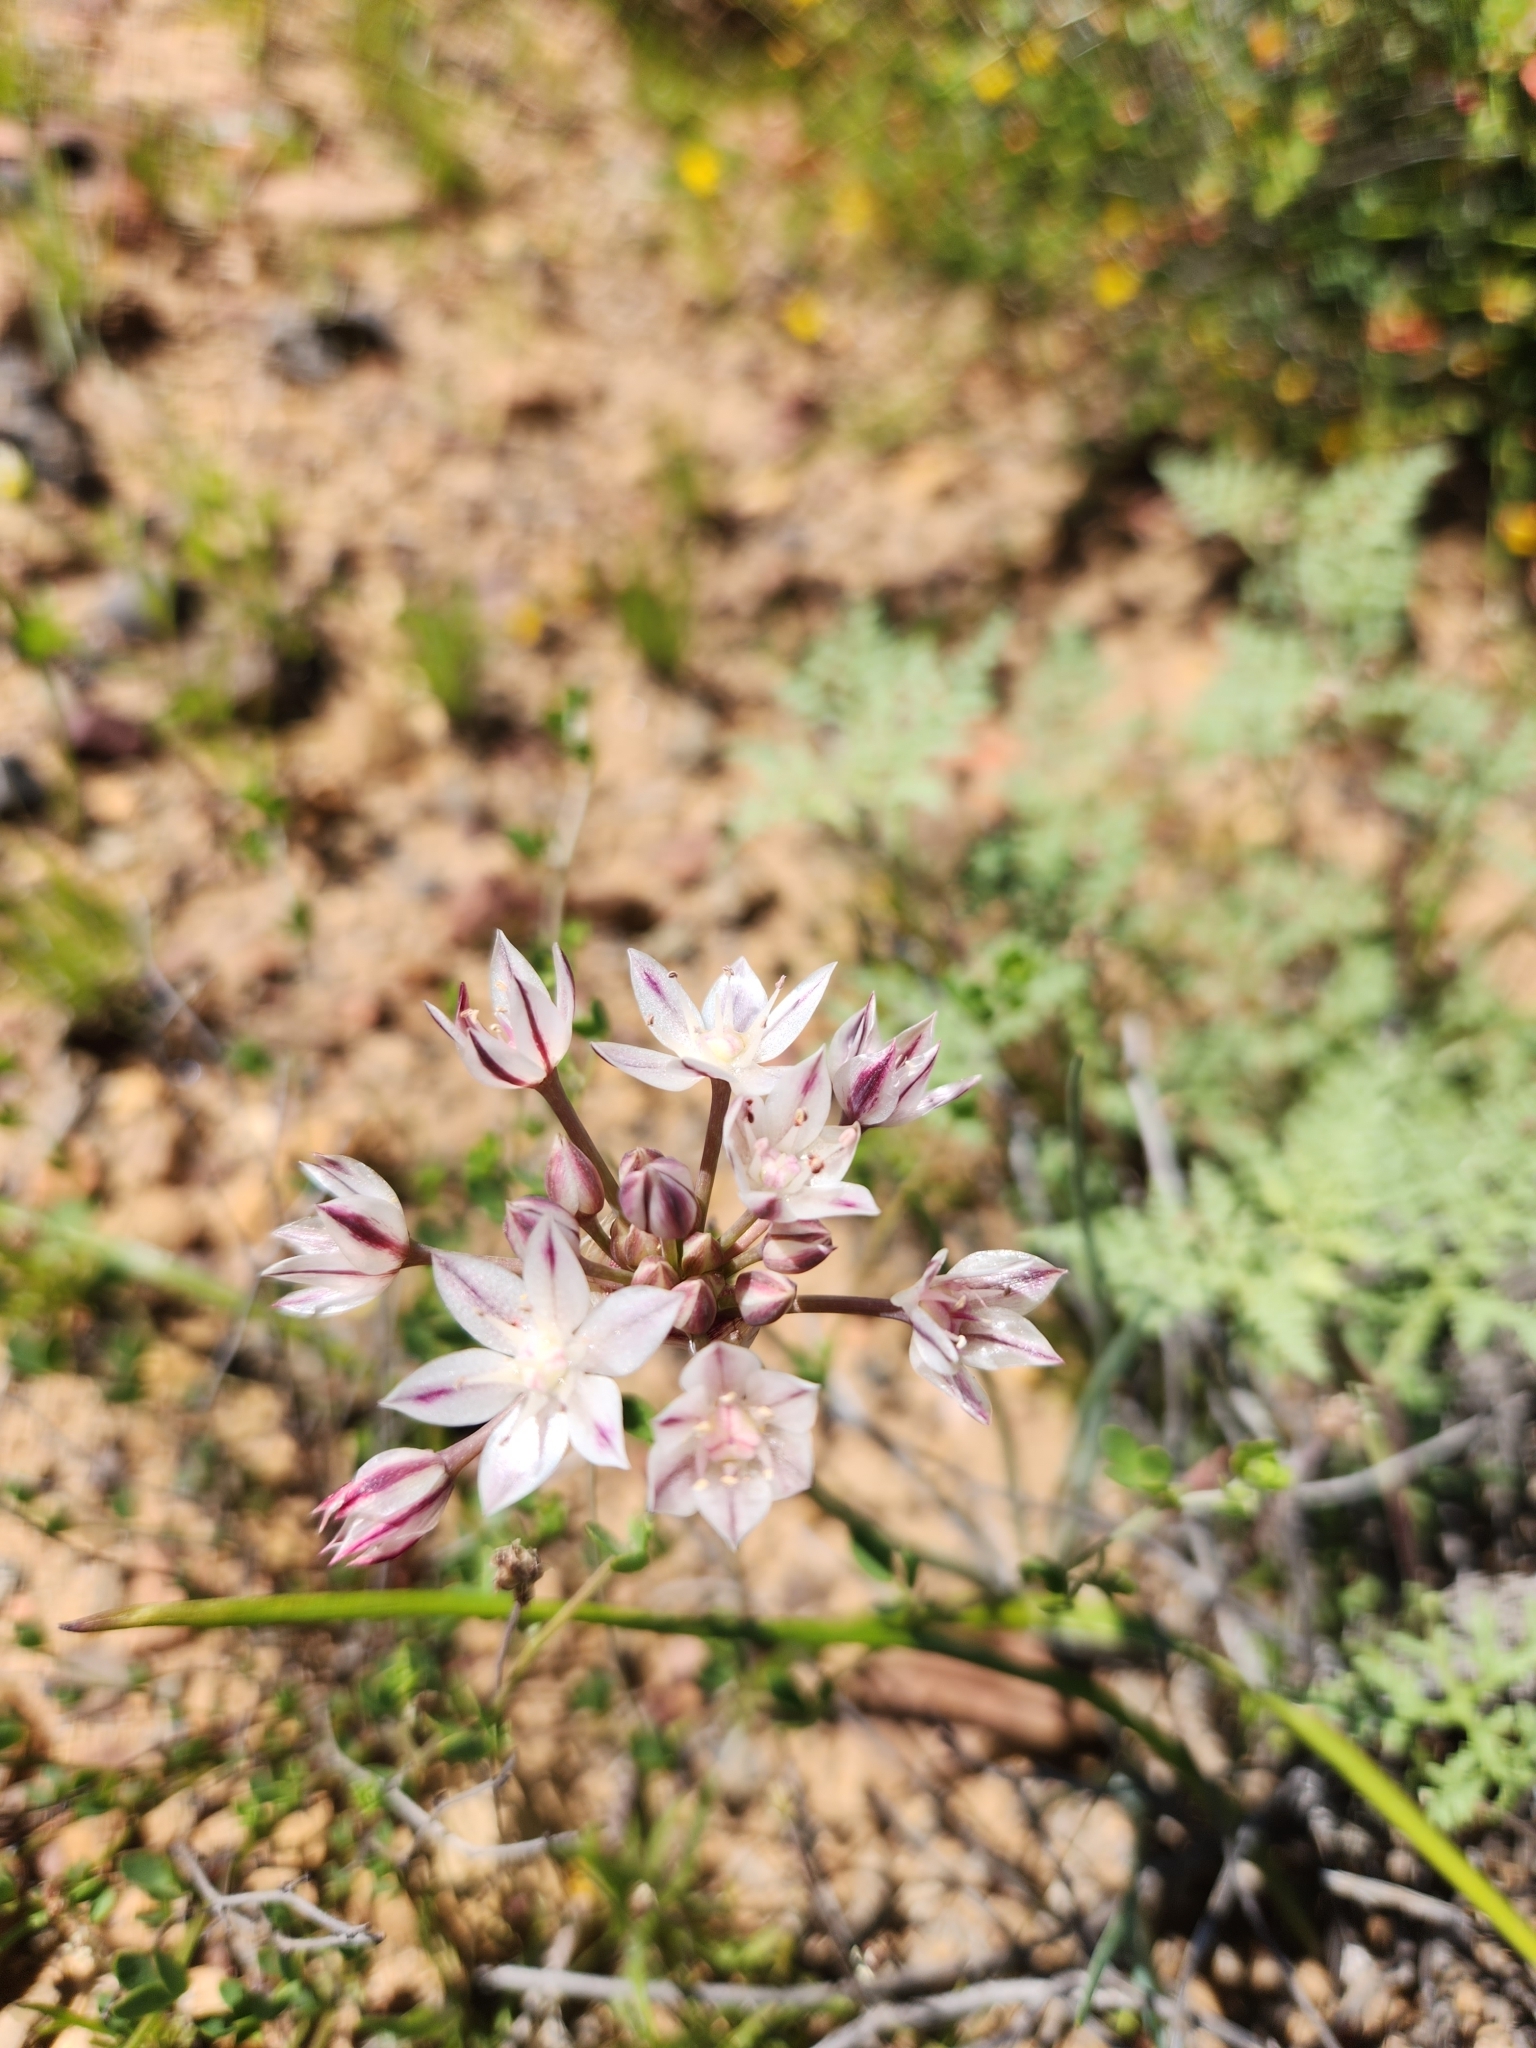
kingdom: Plantae
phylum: Tracheophyta
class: Liliopsida
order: Asparagales
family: Amaryllidaceae
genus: Allium
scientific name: Allium haematochiton
